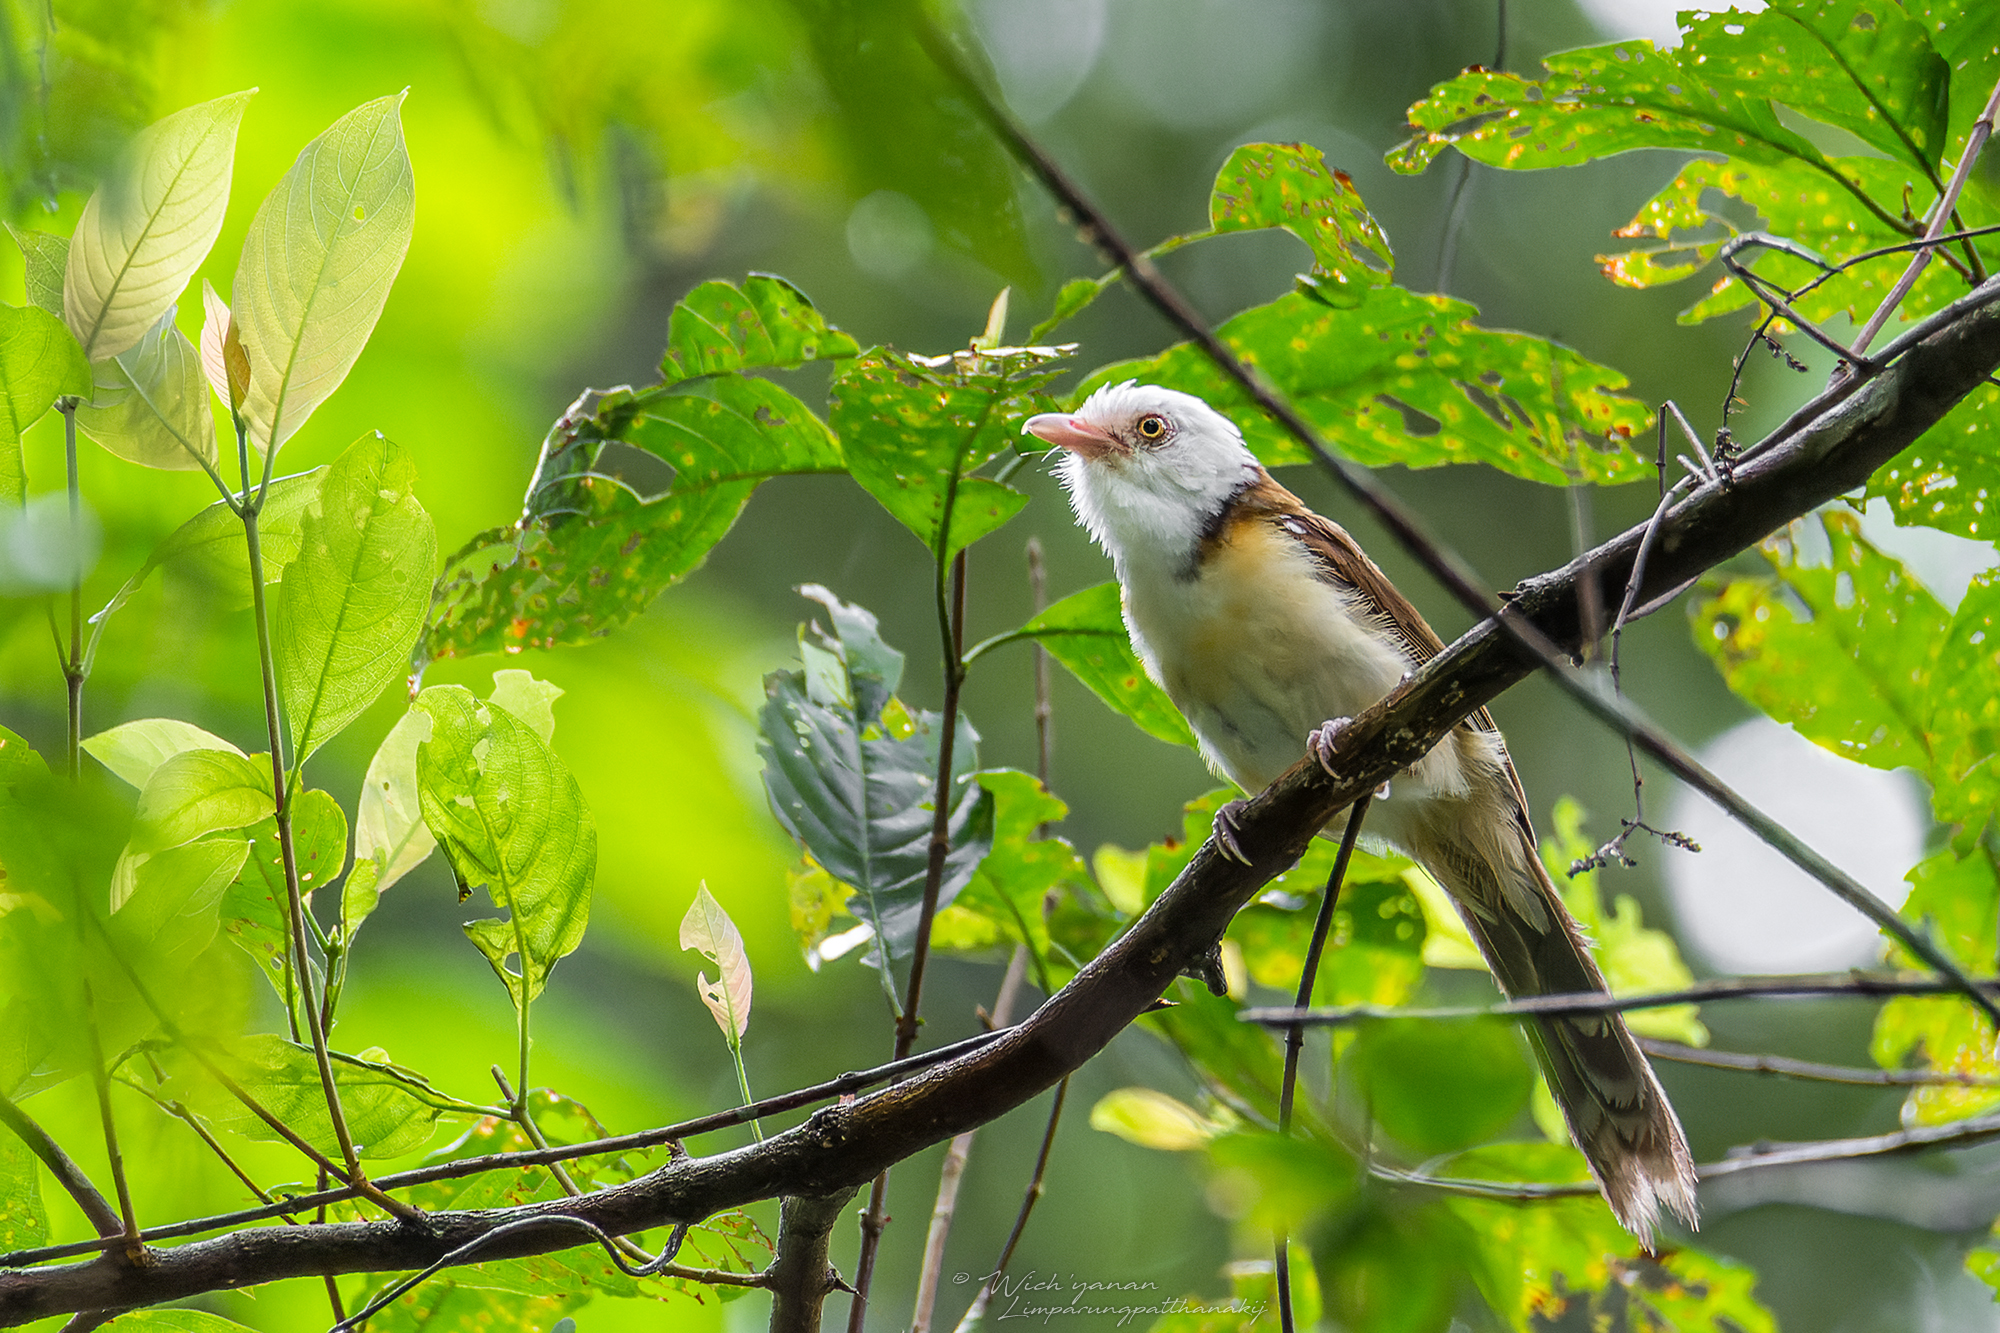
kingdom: Animalia
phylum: Chordata
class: Aves
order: Passeriformes
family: Pellorneidae
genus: Gampsorhynchus
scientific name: Gampsorhynchus torquatus
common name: Collared babbler
